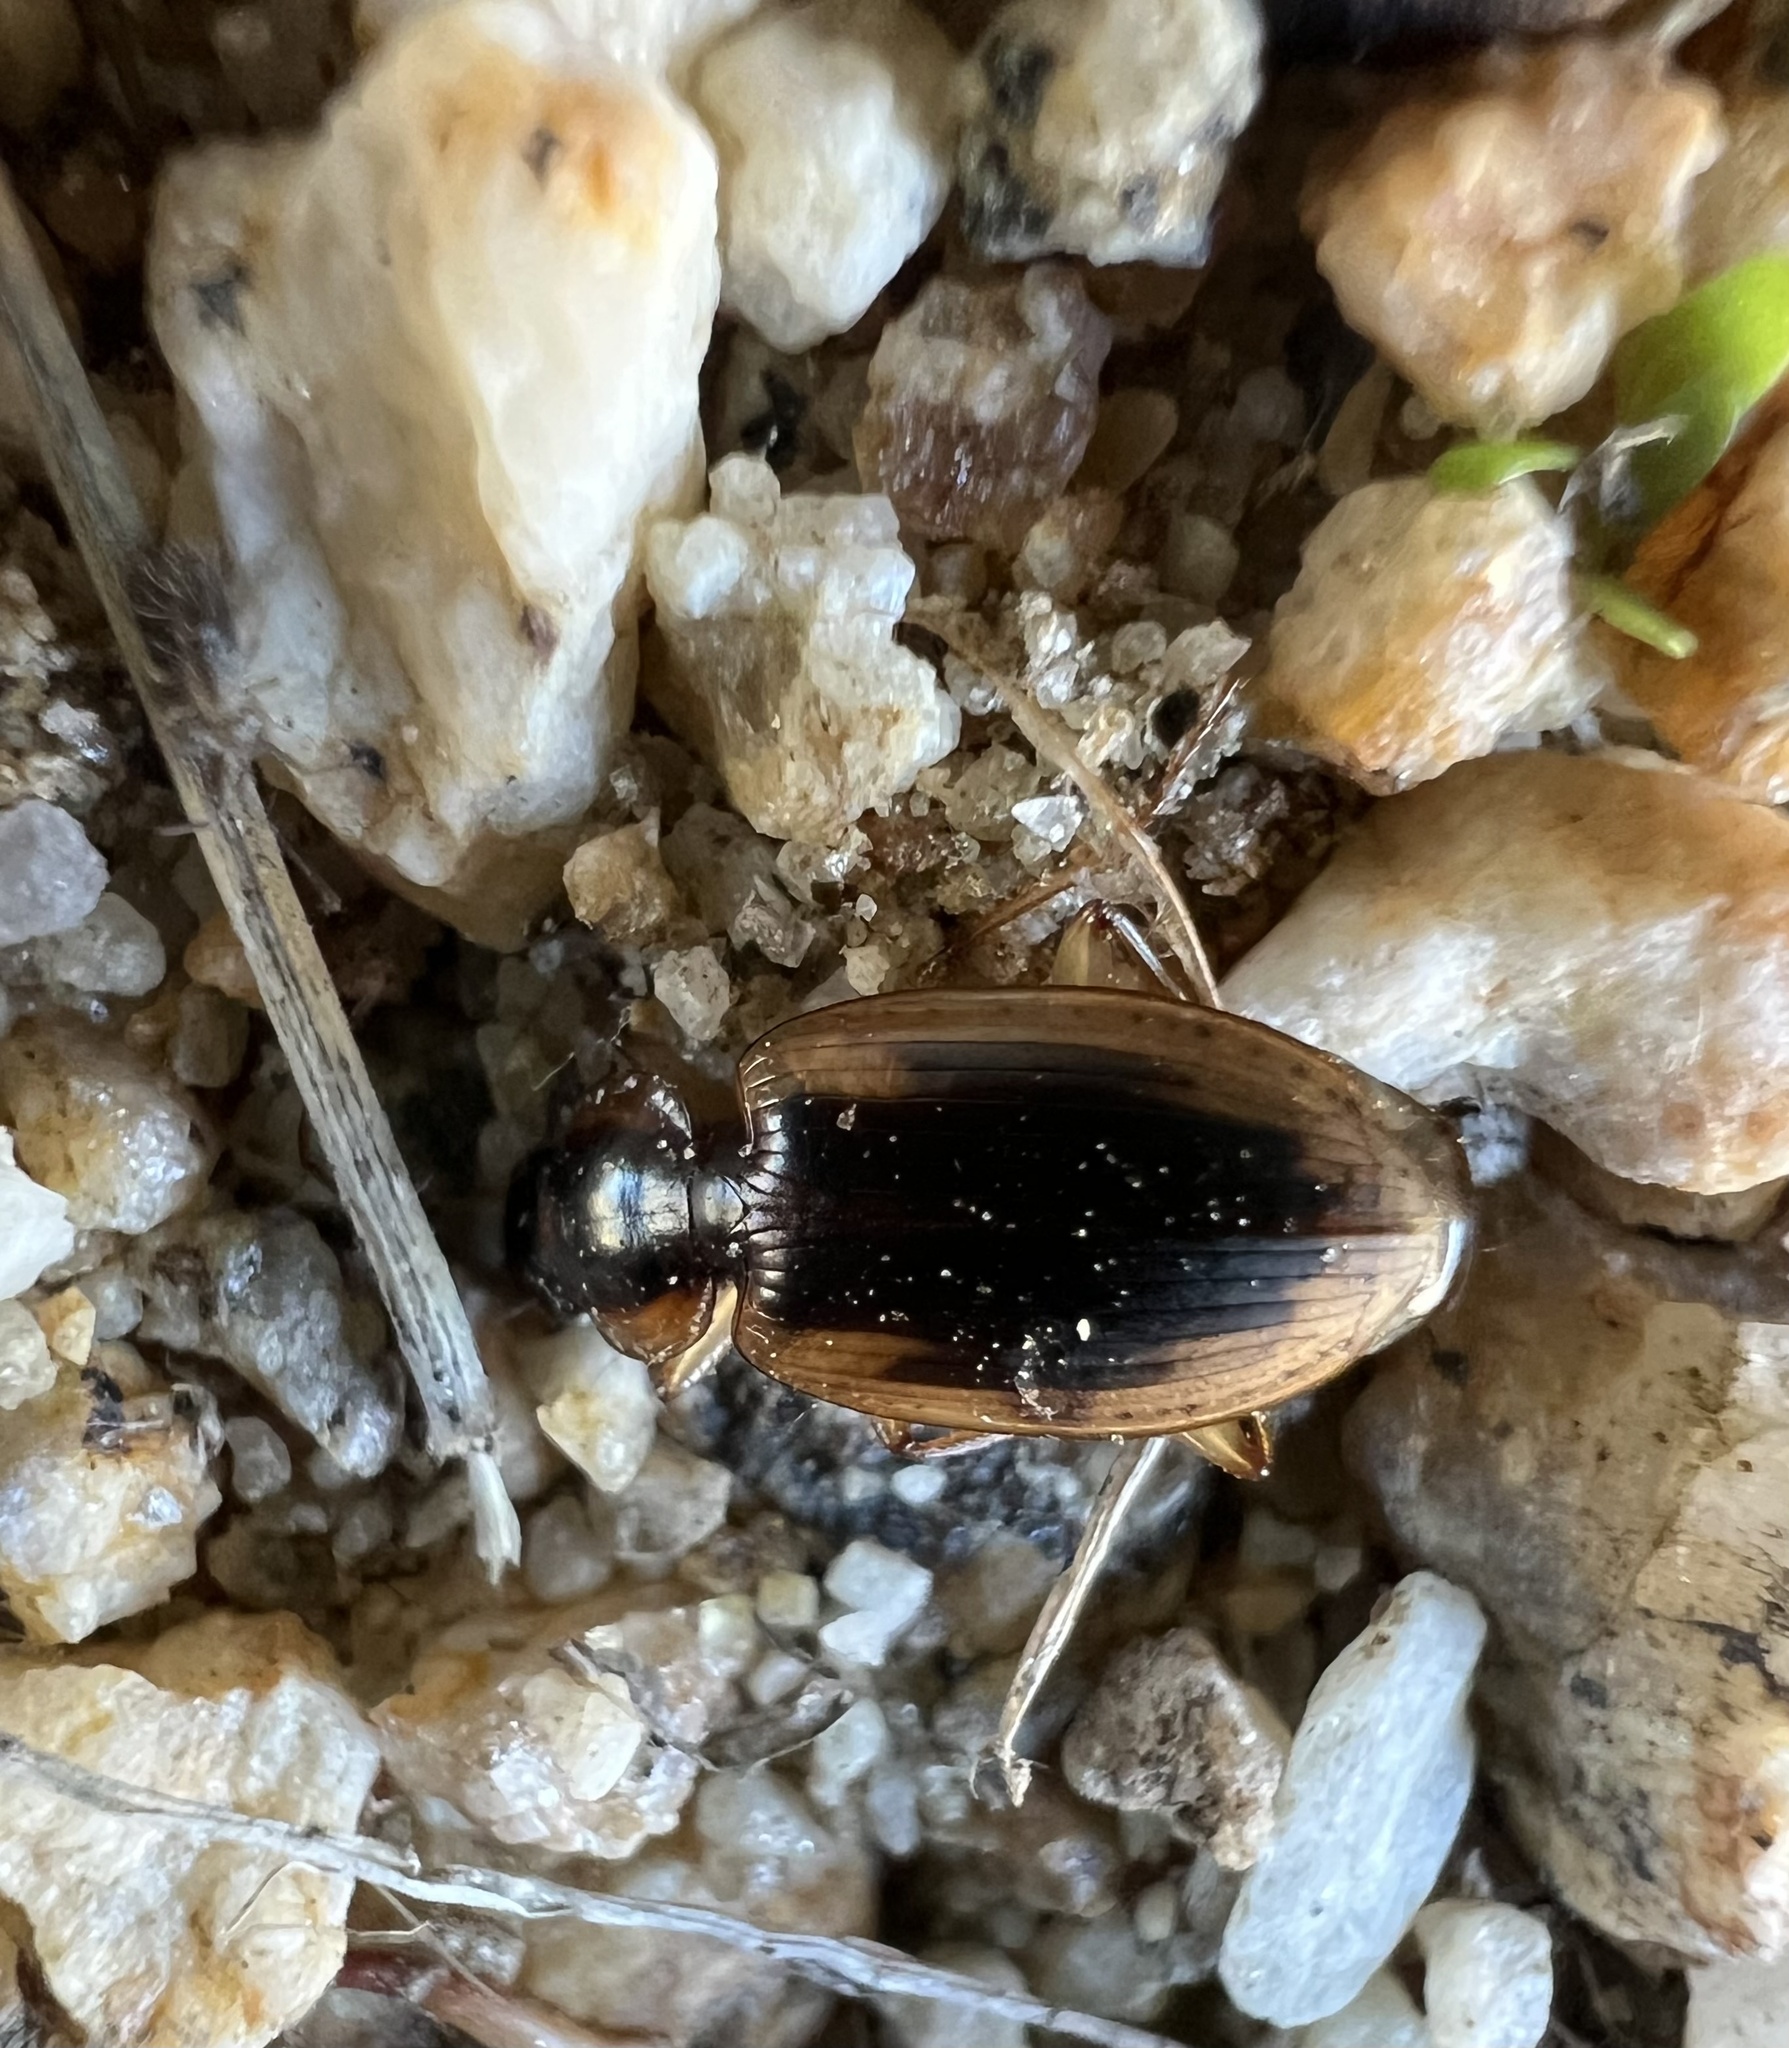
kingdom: Animalia
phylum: Arthropoda
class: Insecta
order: Coleoptera
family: Carabidae
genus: Tanystoma
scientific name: Tanystoma maculicolle
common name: Tule beetle
